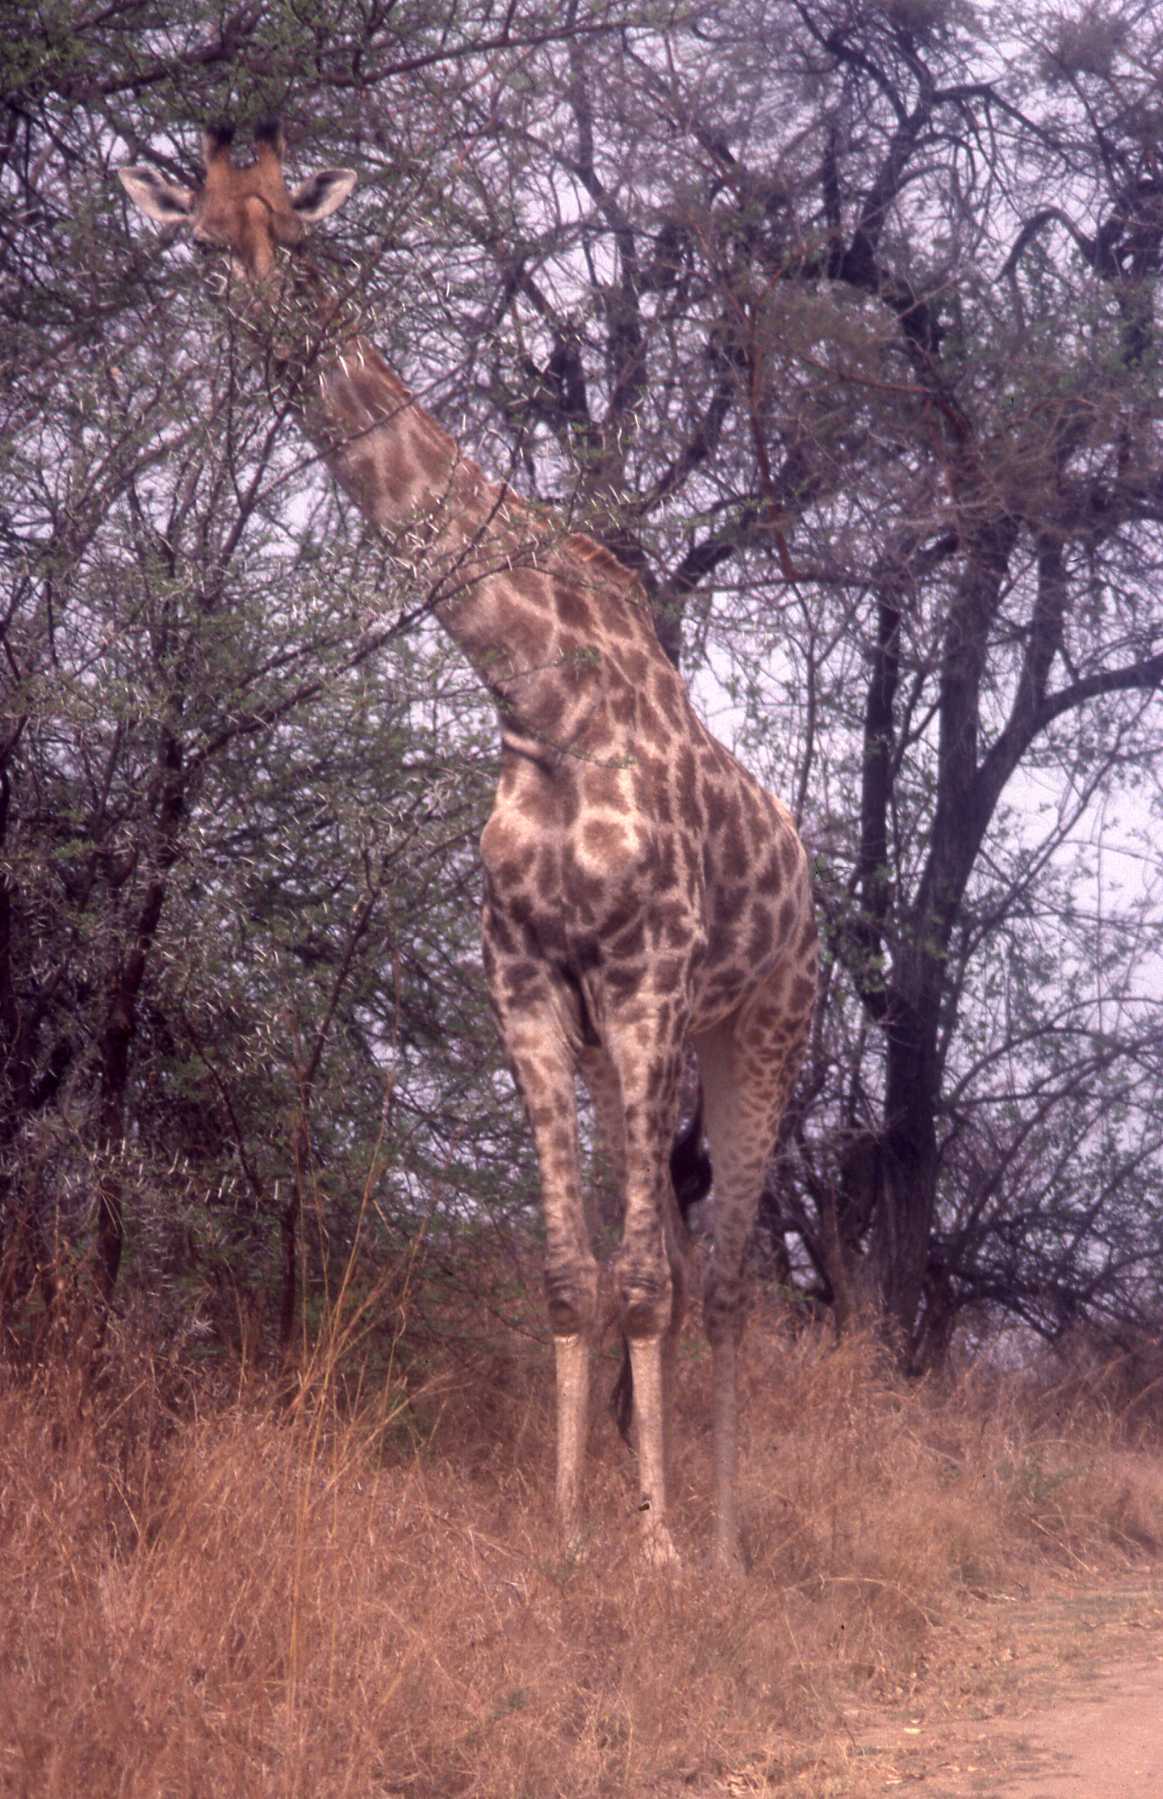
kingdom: Animalia
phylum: Chordata
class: Mammalia
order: Artiodactyla
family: Giraffidae
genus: Giraffa
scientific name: Giraffa giraffa
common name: Southern giraffe
